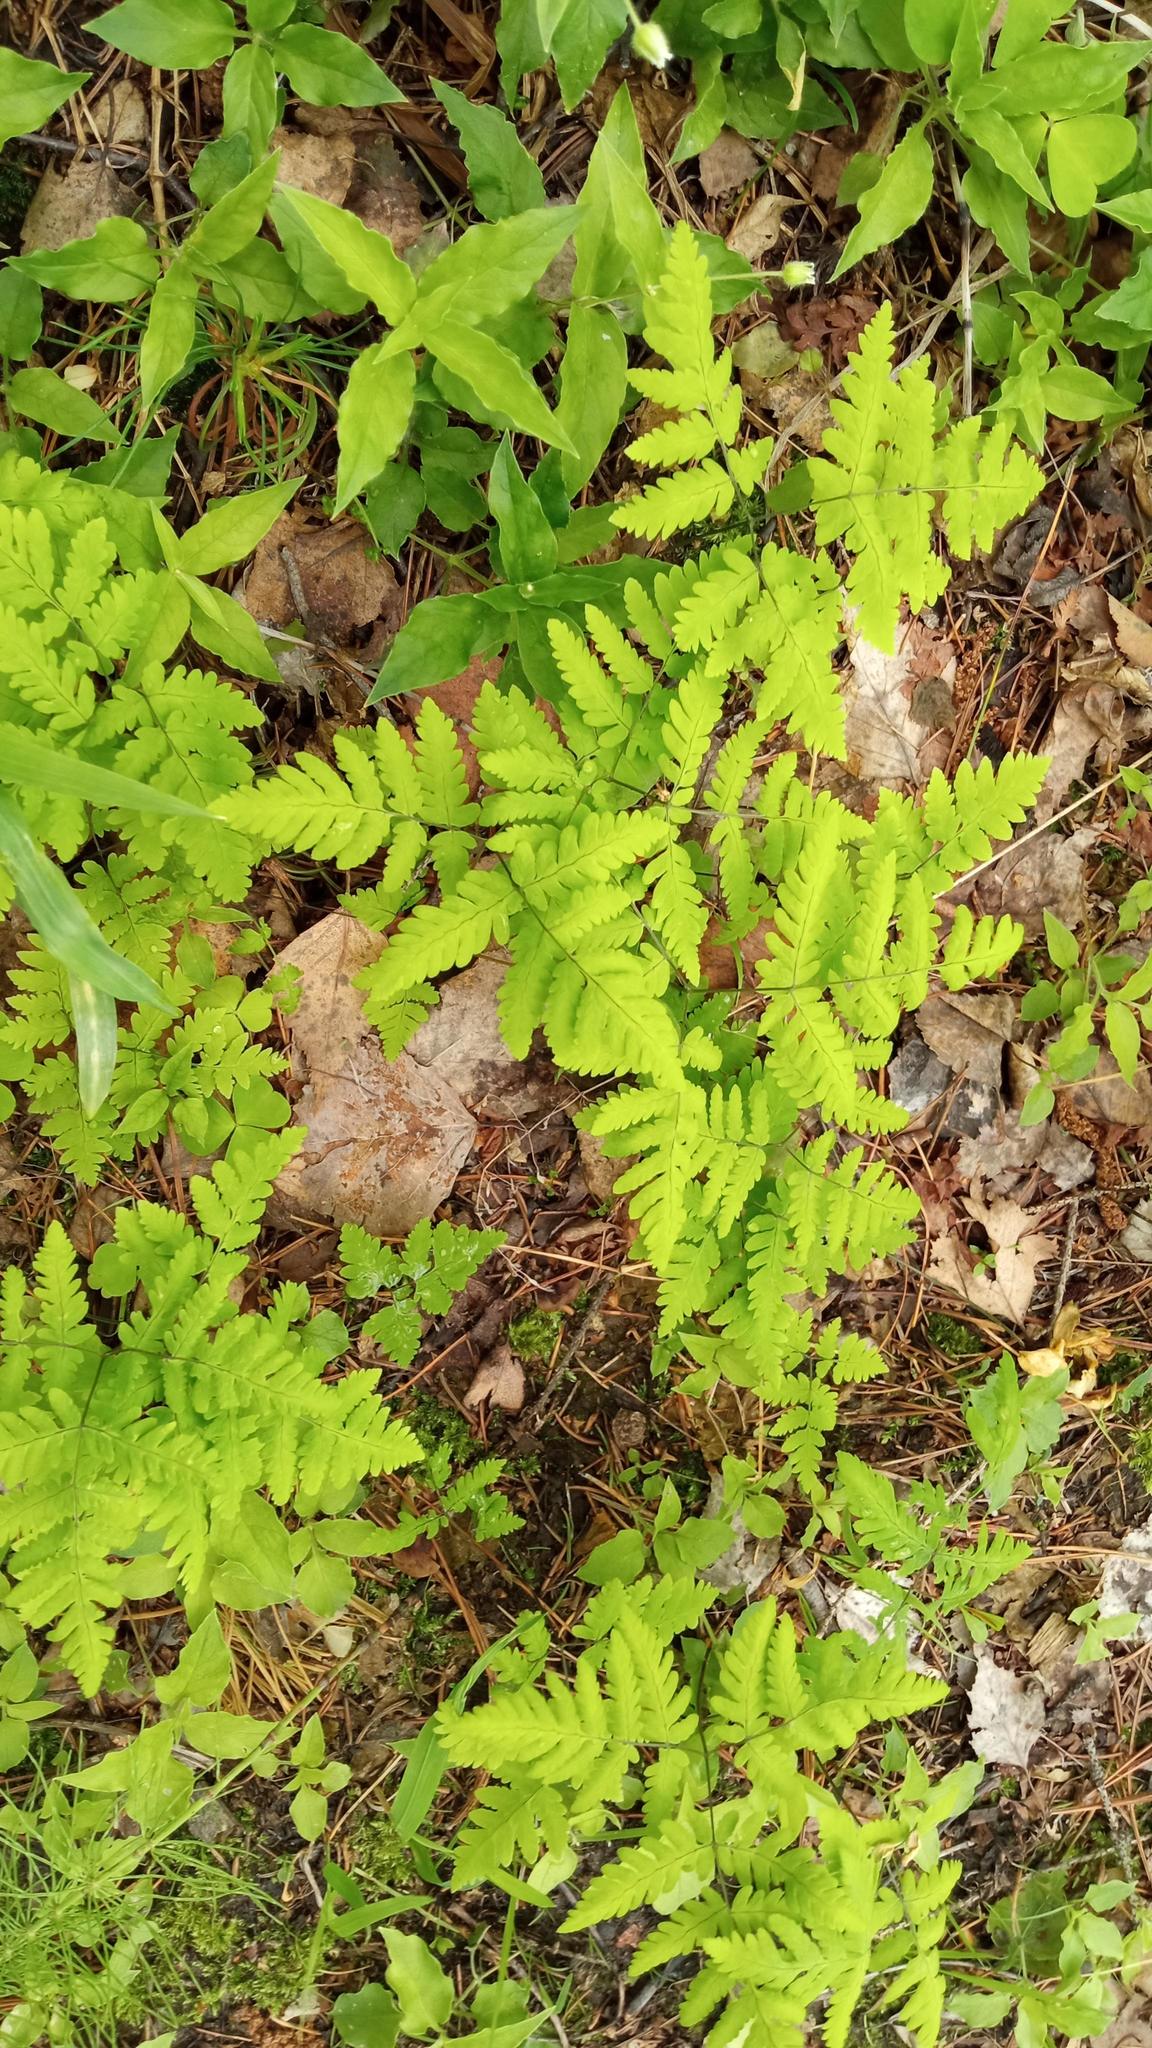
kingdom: Plantae
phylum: Tracheophyta
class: Polypodiopsida
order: Polypodiales
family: Cystopteridaceae
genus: Gymnocarpium
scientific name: Gymnocarpium dryopteris
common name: Oak fern
